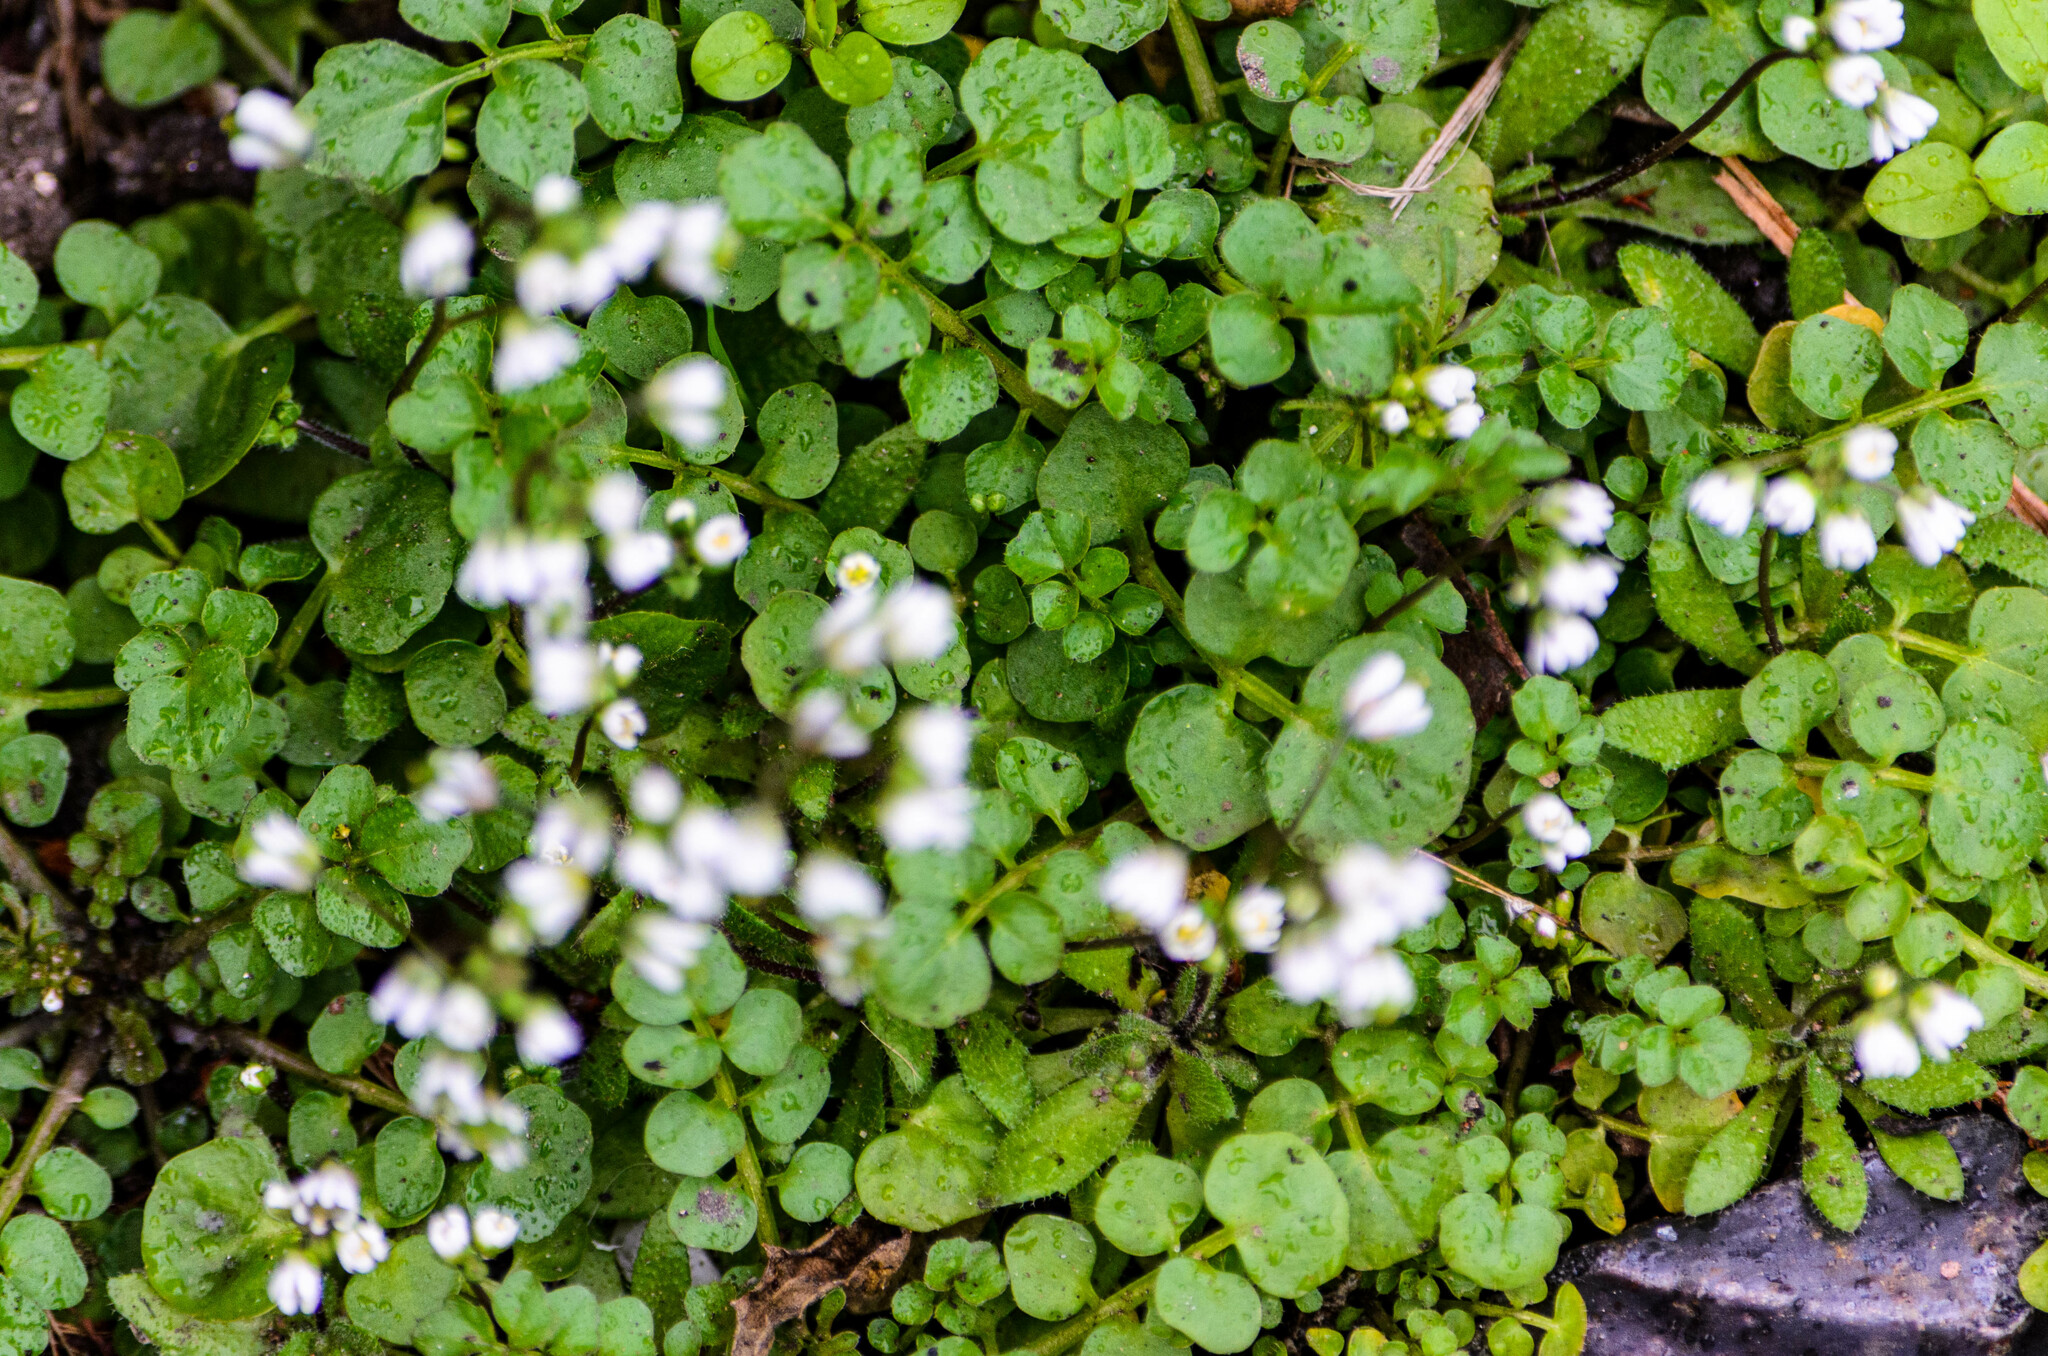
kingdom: Plantae
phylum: Tracheophyta
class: Magnoliopsida
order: Brassicales
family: Brassicaceae
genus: Draba
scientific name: Draba verna
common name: Spring draba
